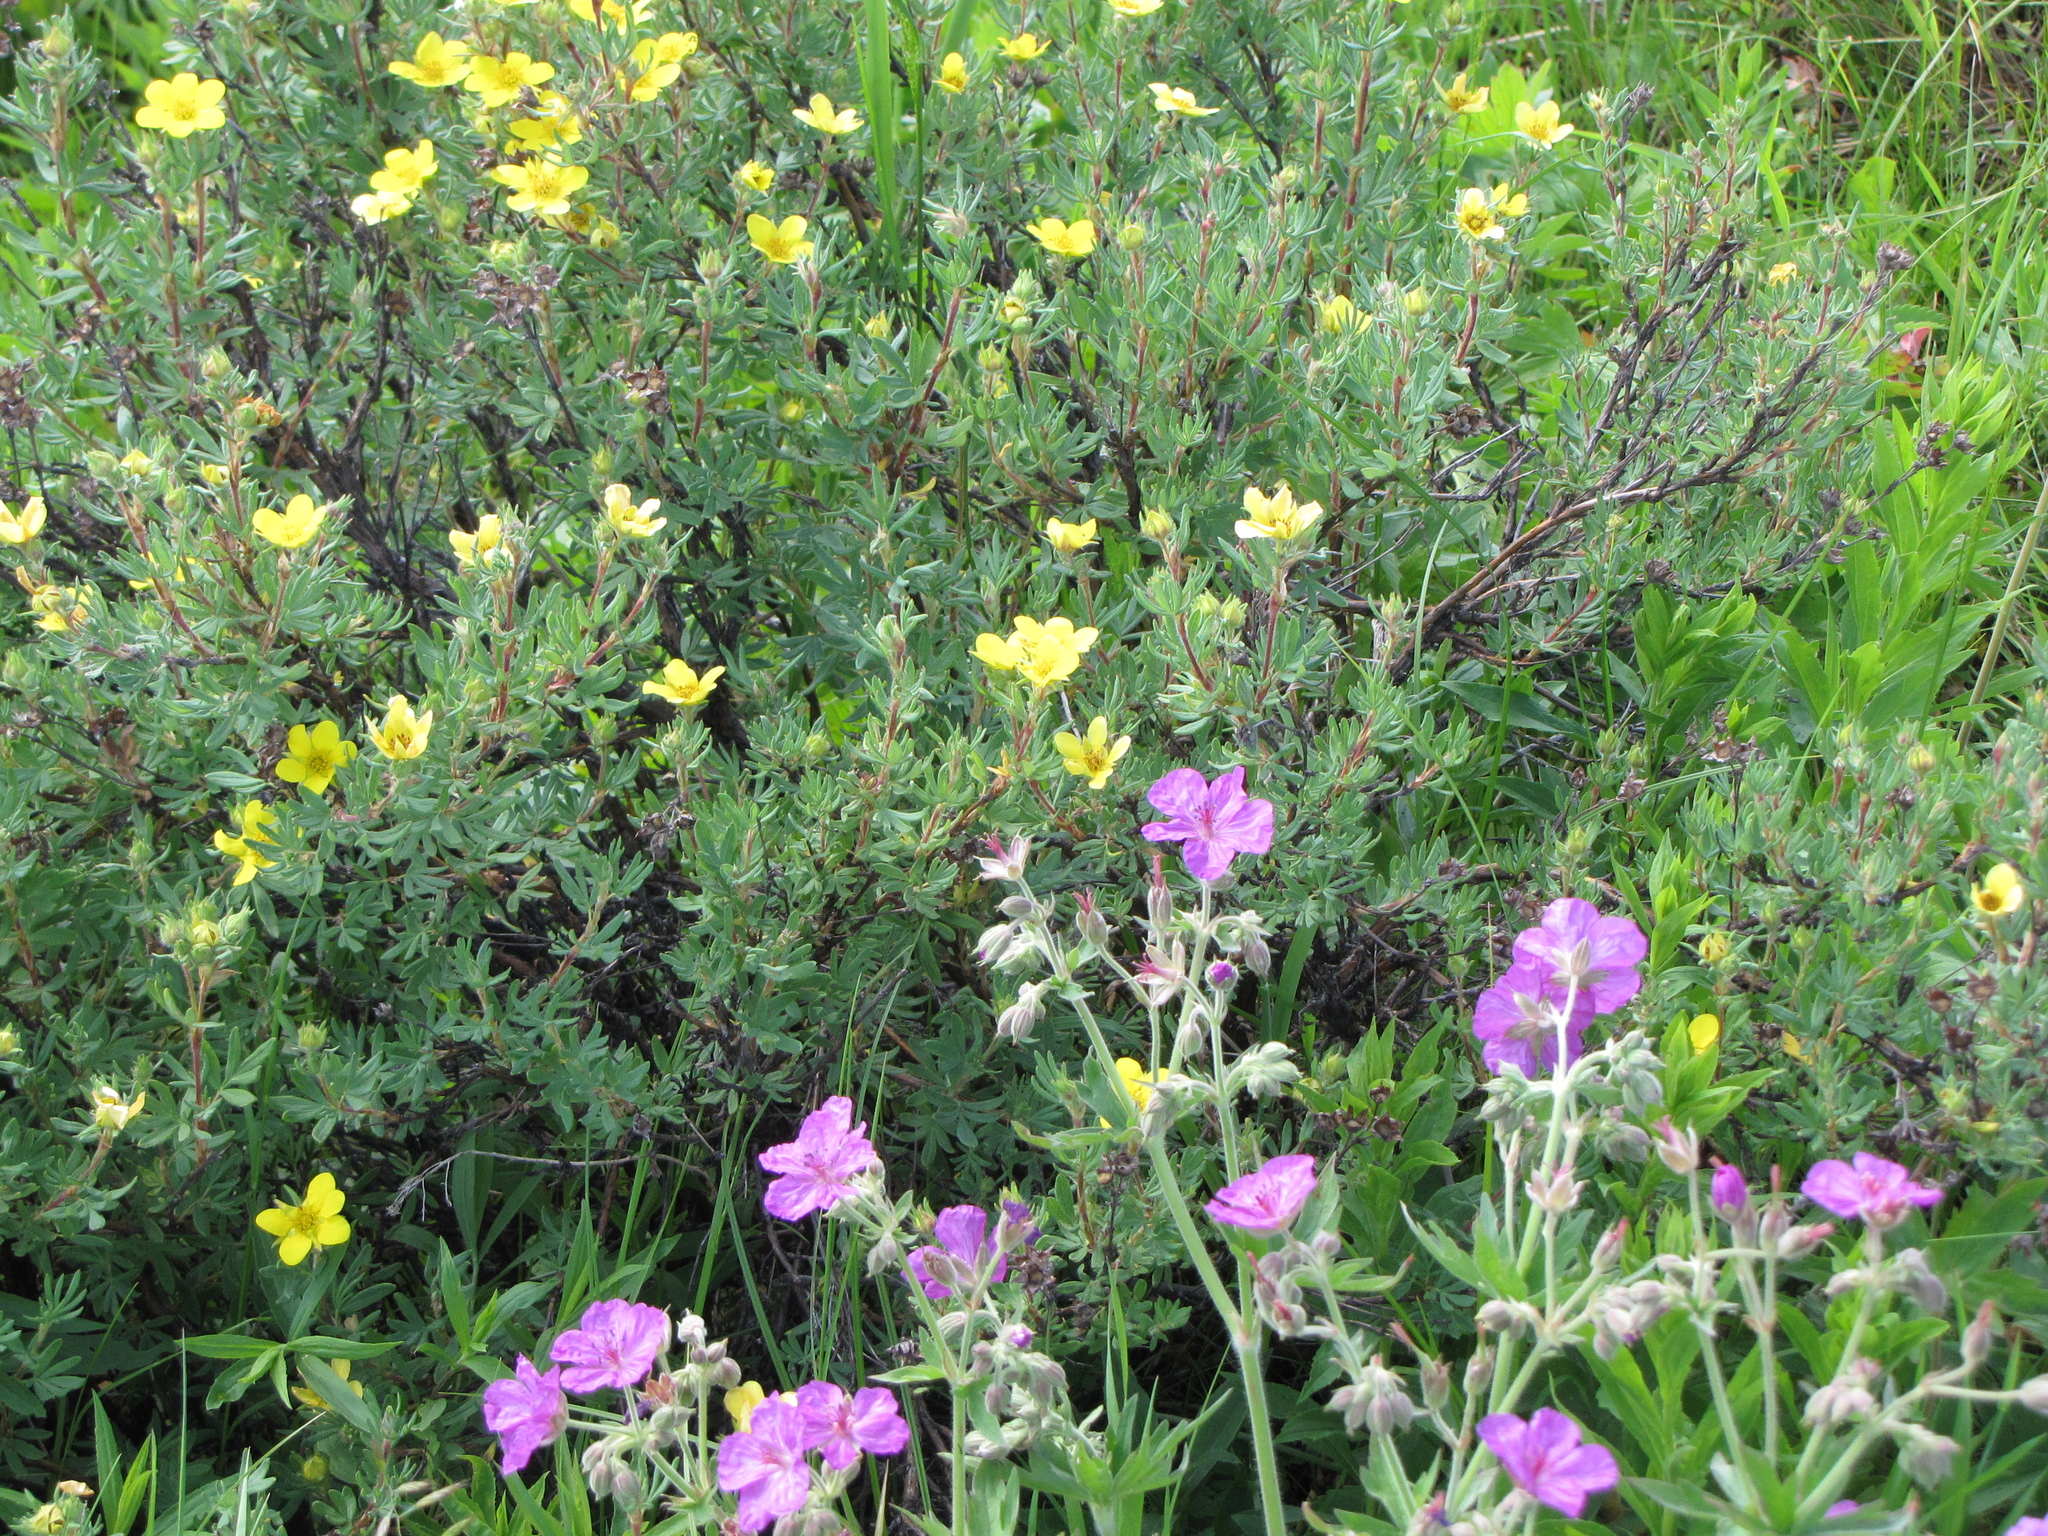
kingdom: Plantae
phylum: Tracheophyta
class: Magnoliopsida
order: Rosales
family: Rosaceae
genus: Dasiphora
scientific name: Dasiphora fruticosa
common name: Shrubby cinquefoil
